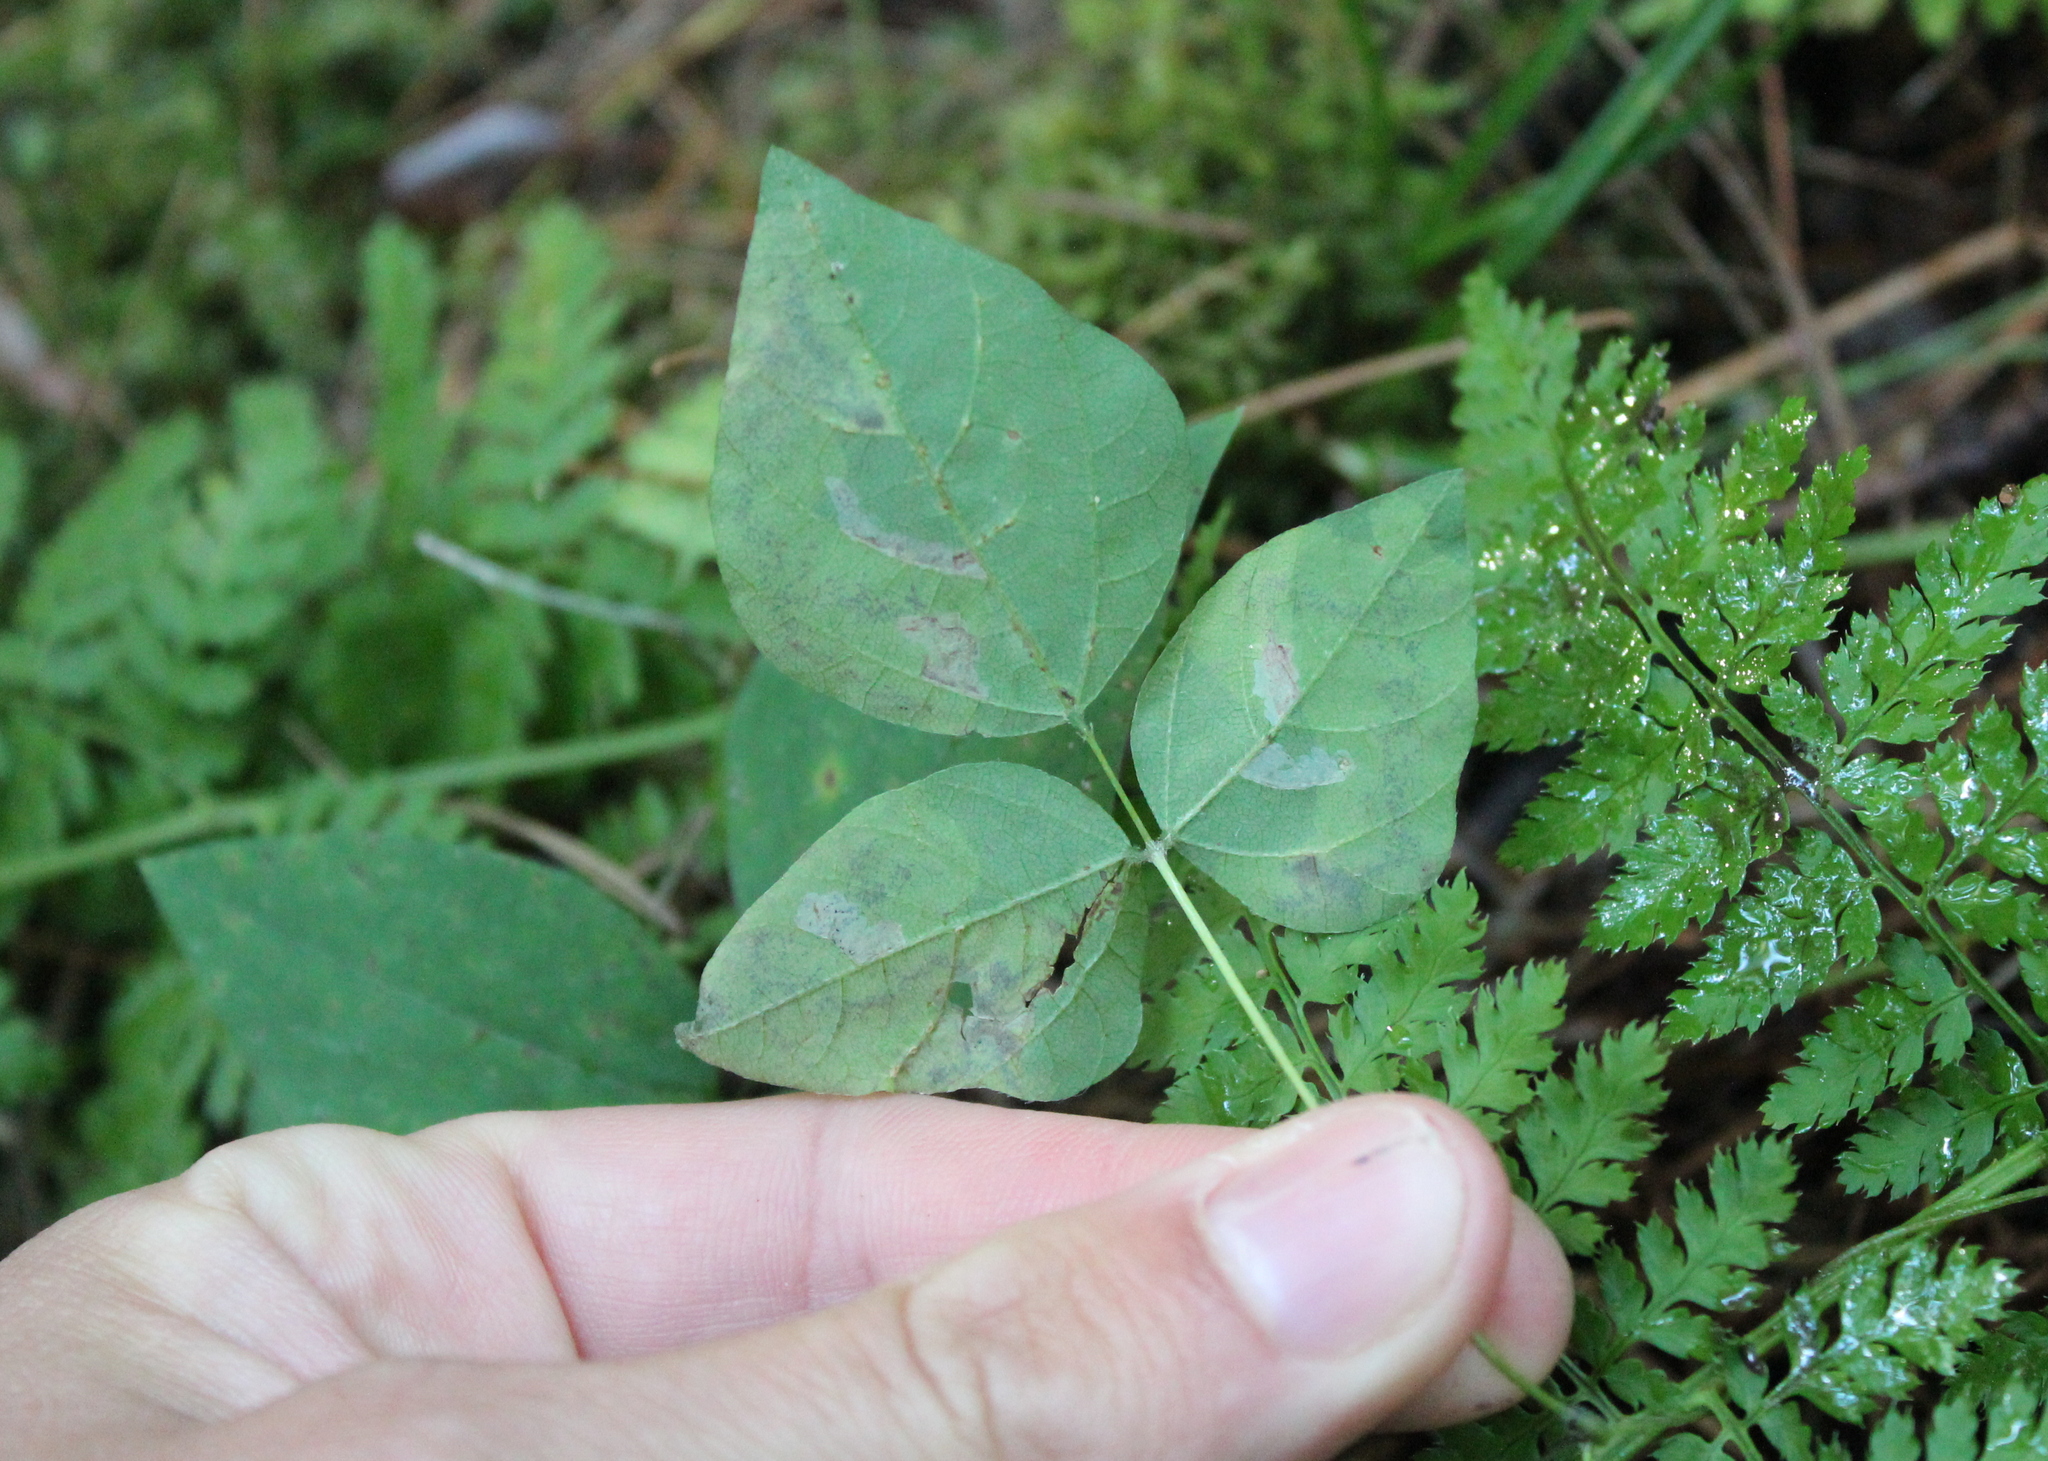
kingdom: Animalia
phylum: Arthropoda
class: Insecta
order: Lepidoptera
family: Gracillariidae
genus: Leucanthiza
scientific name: Leucanthiza amphicarpeaefoliella
